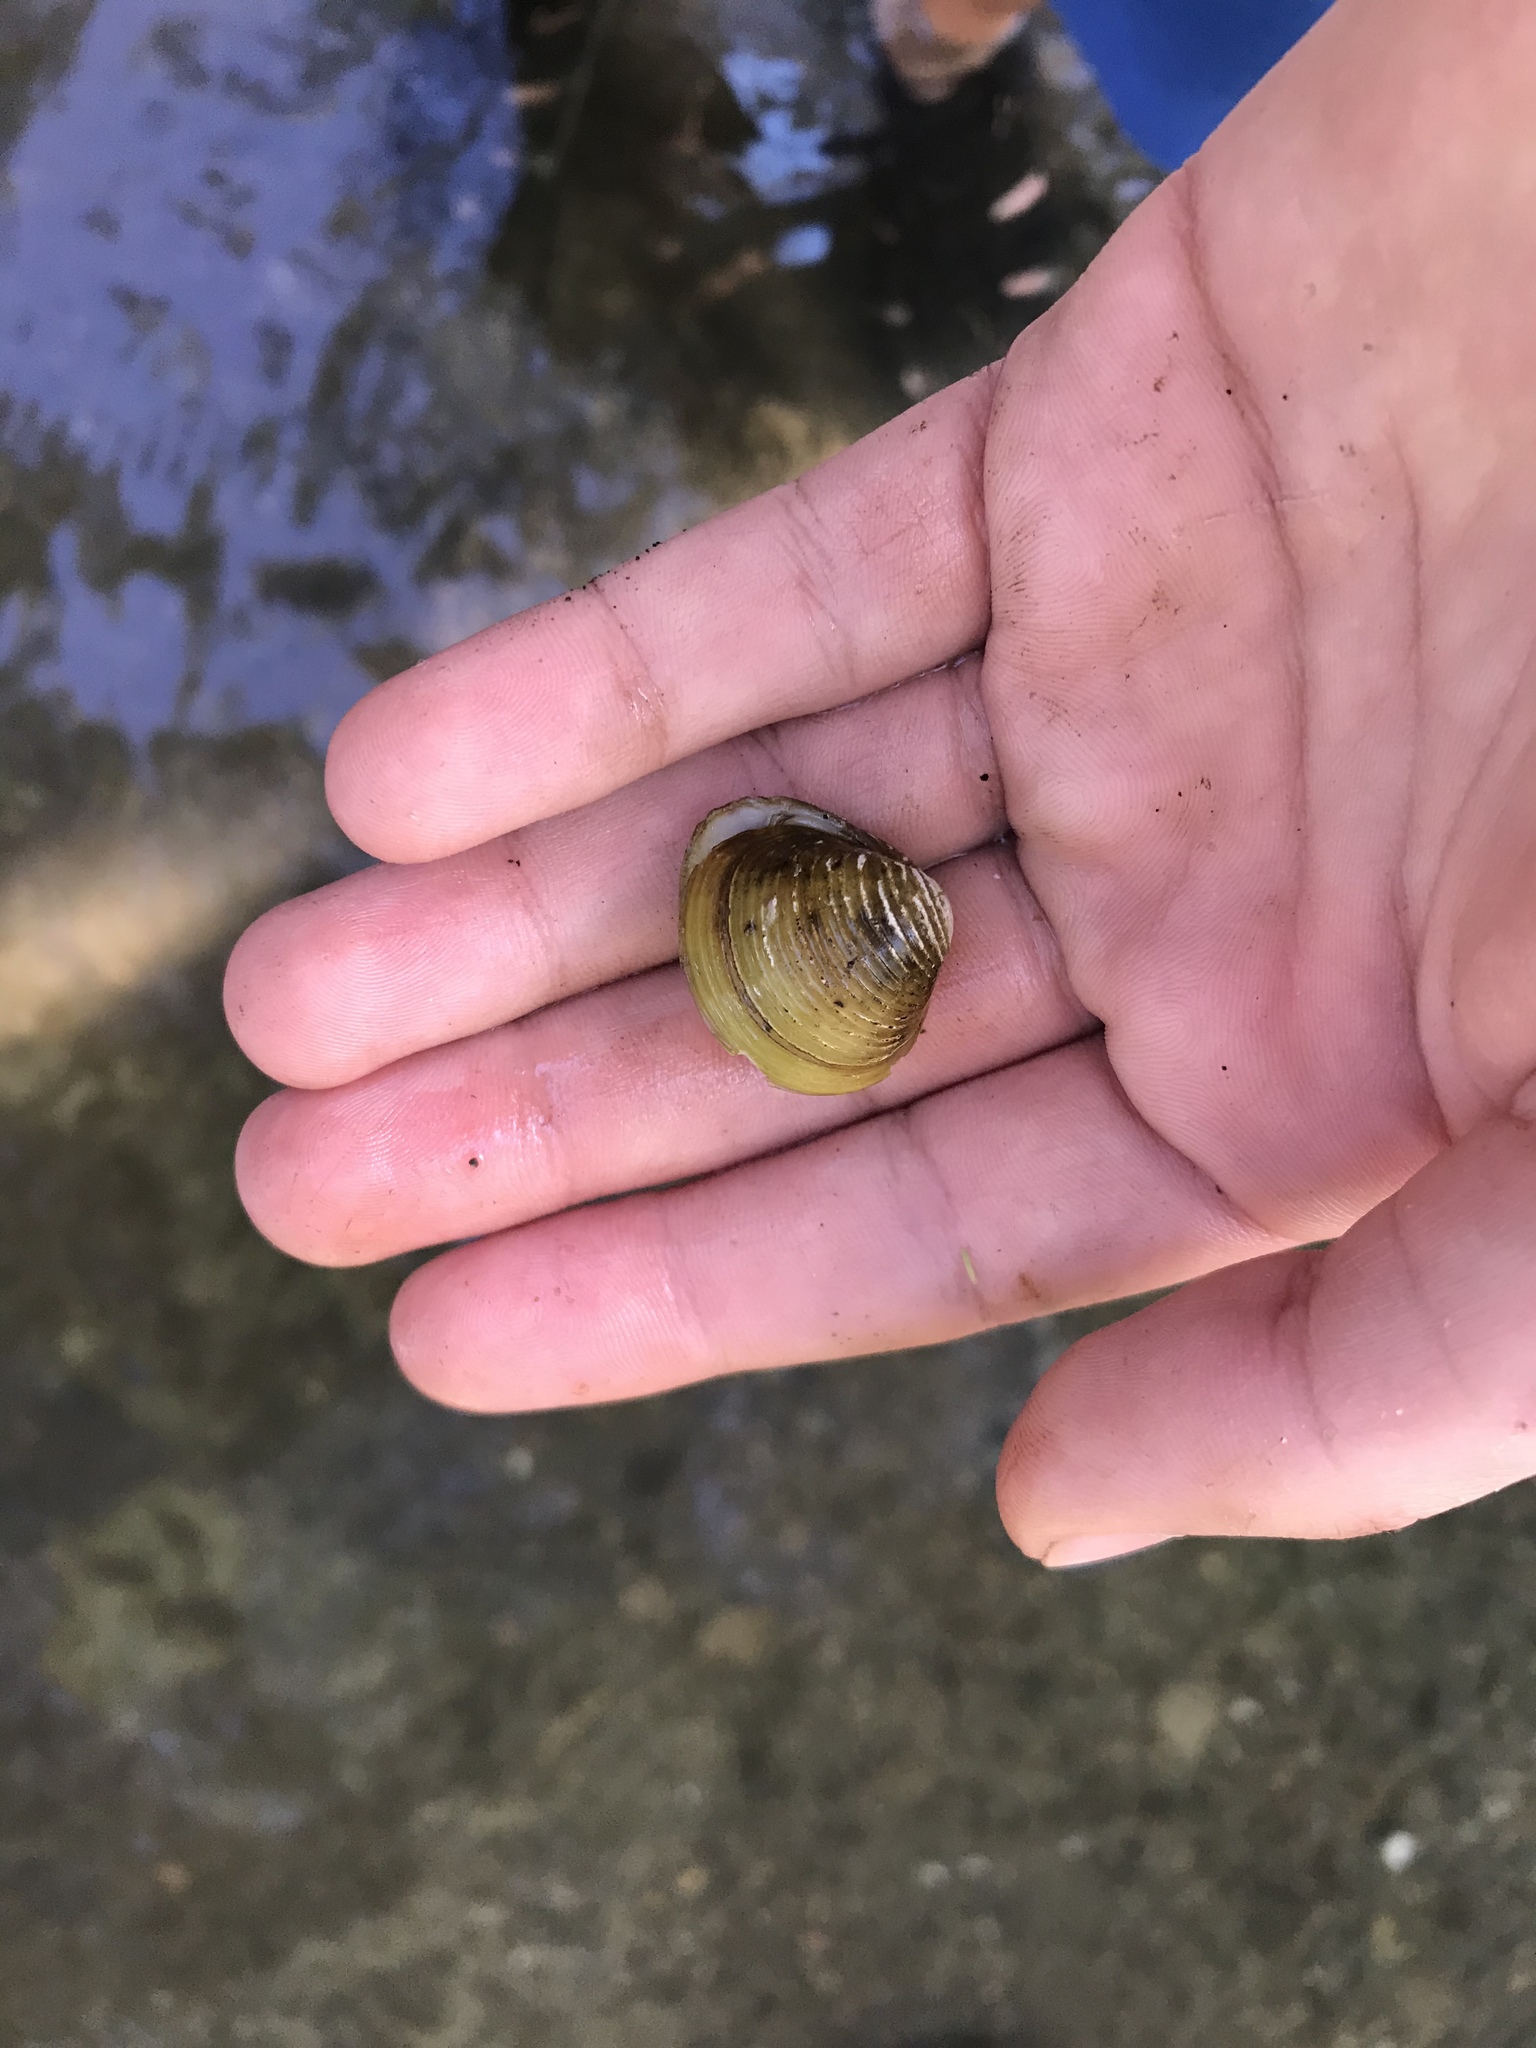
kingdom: Animalia
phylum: Mollusca
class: Bivalvia
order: Venerida
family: Cyrenidae
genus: Corbicula
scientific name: Corbicula fluminea
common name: Asian clam
